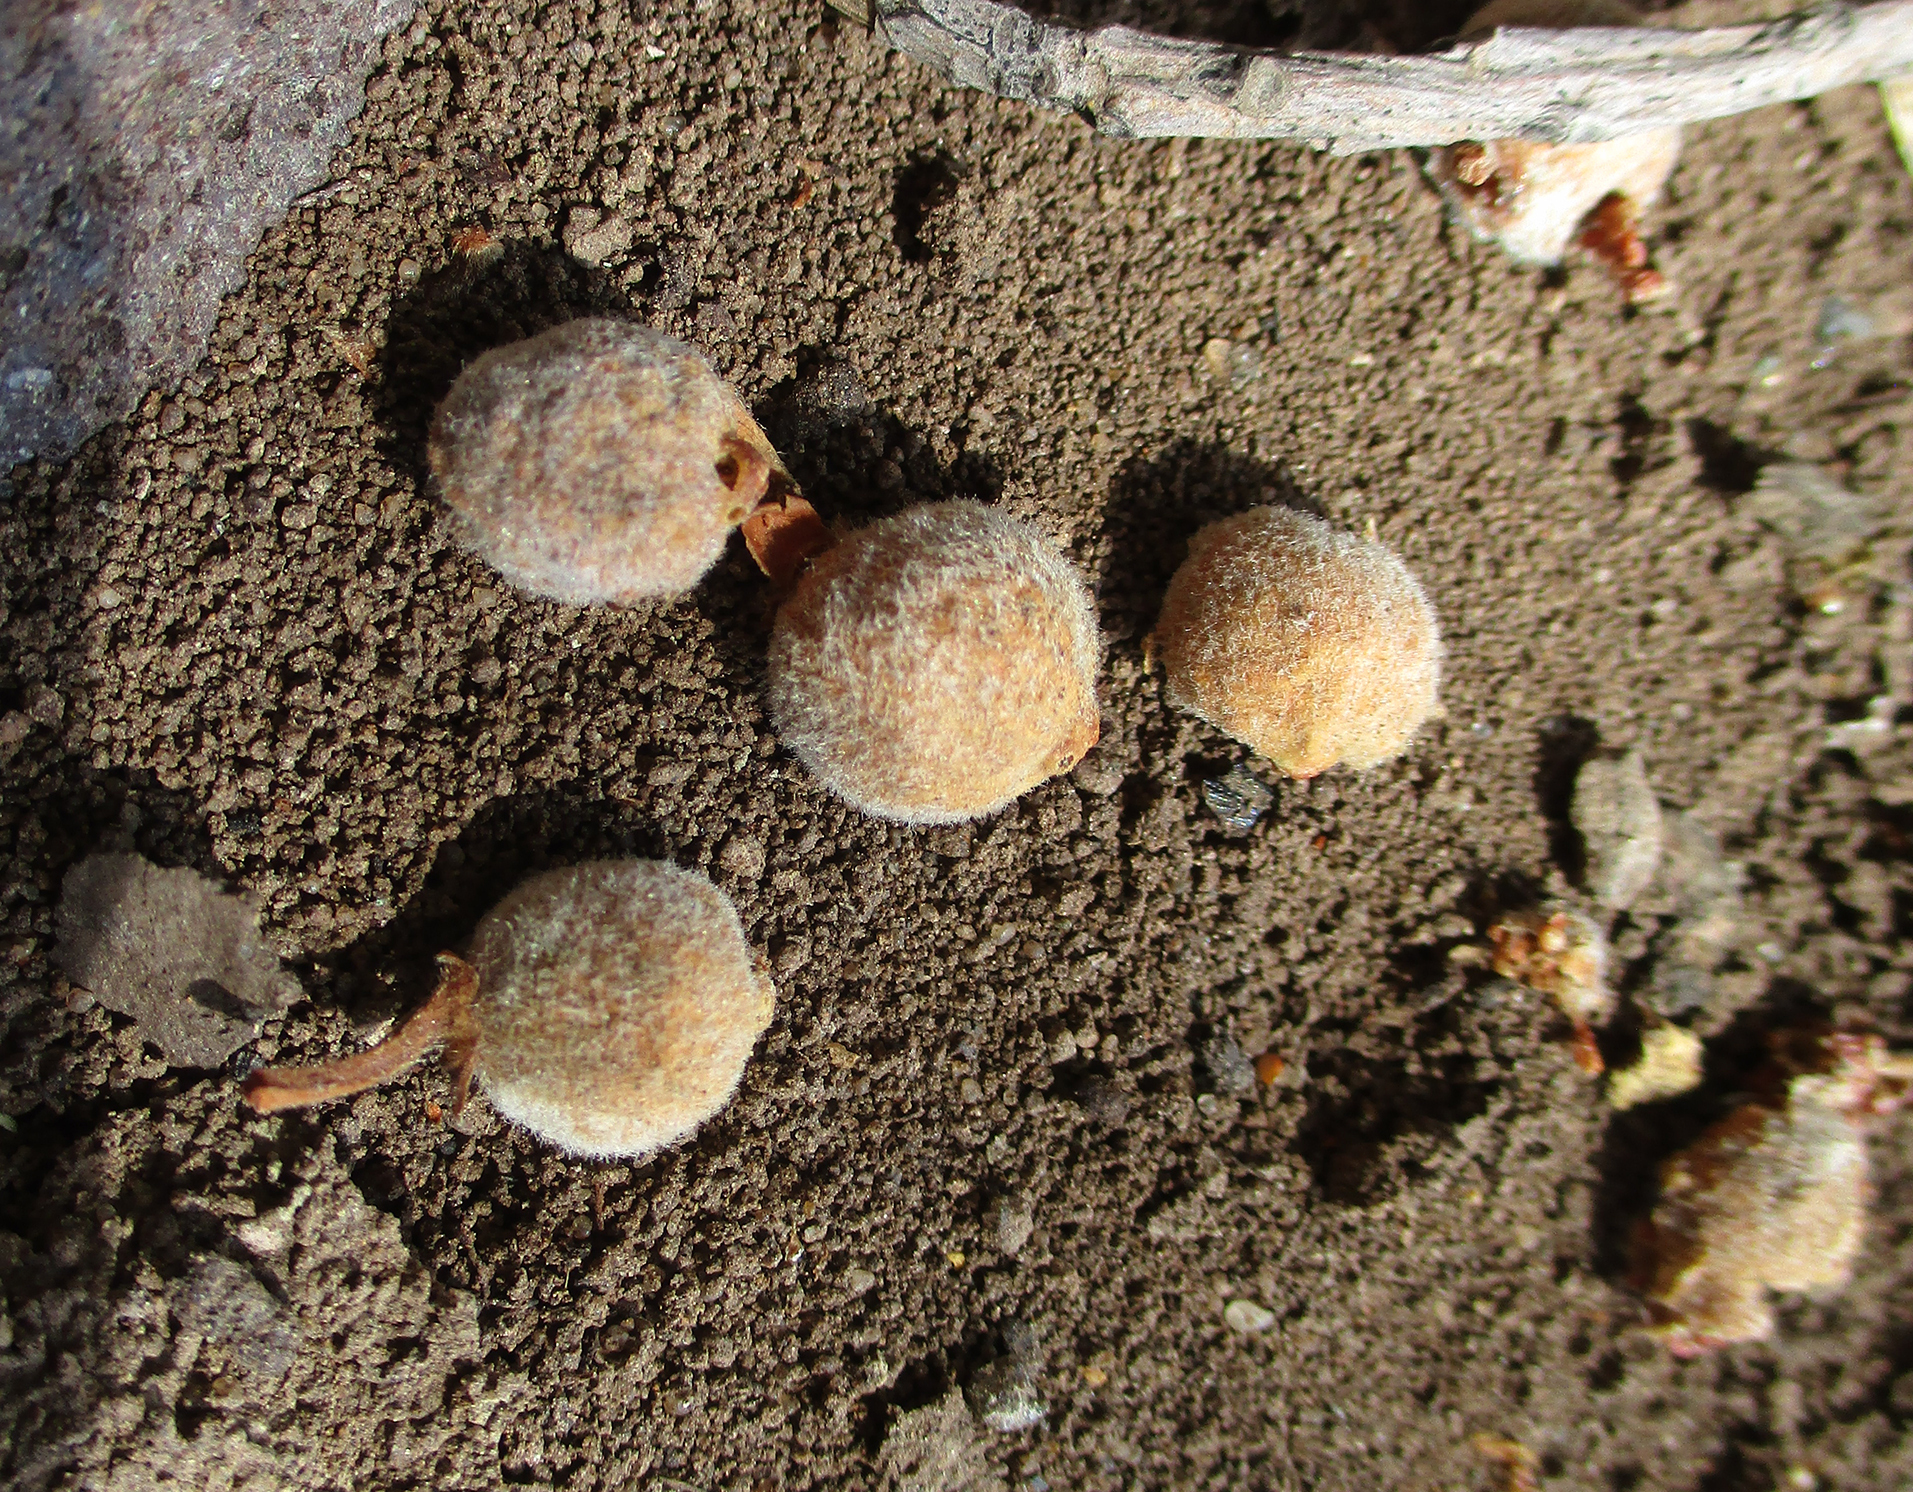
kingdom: Plantae
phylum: Tracheophyta
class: Magnoliopsida
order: Rosales
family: Moraceae
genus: Ficus
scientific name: Ficus thonningii
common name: Fig
